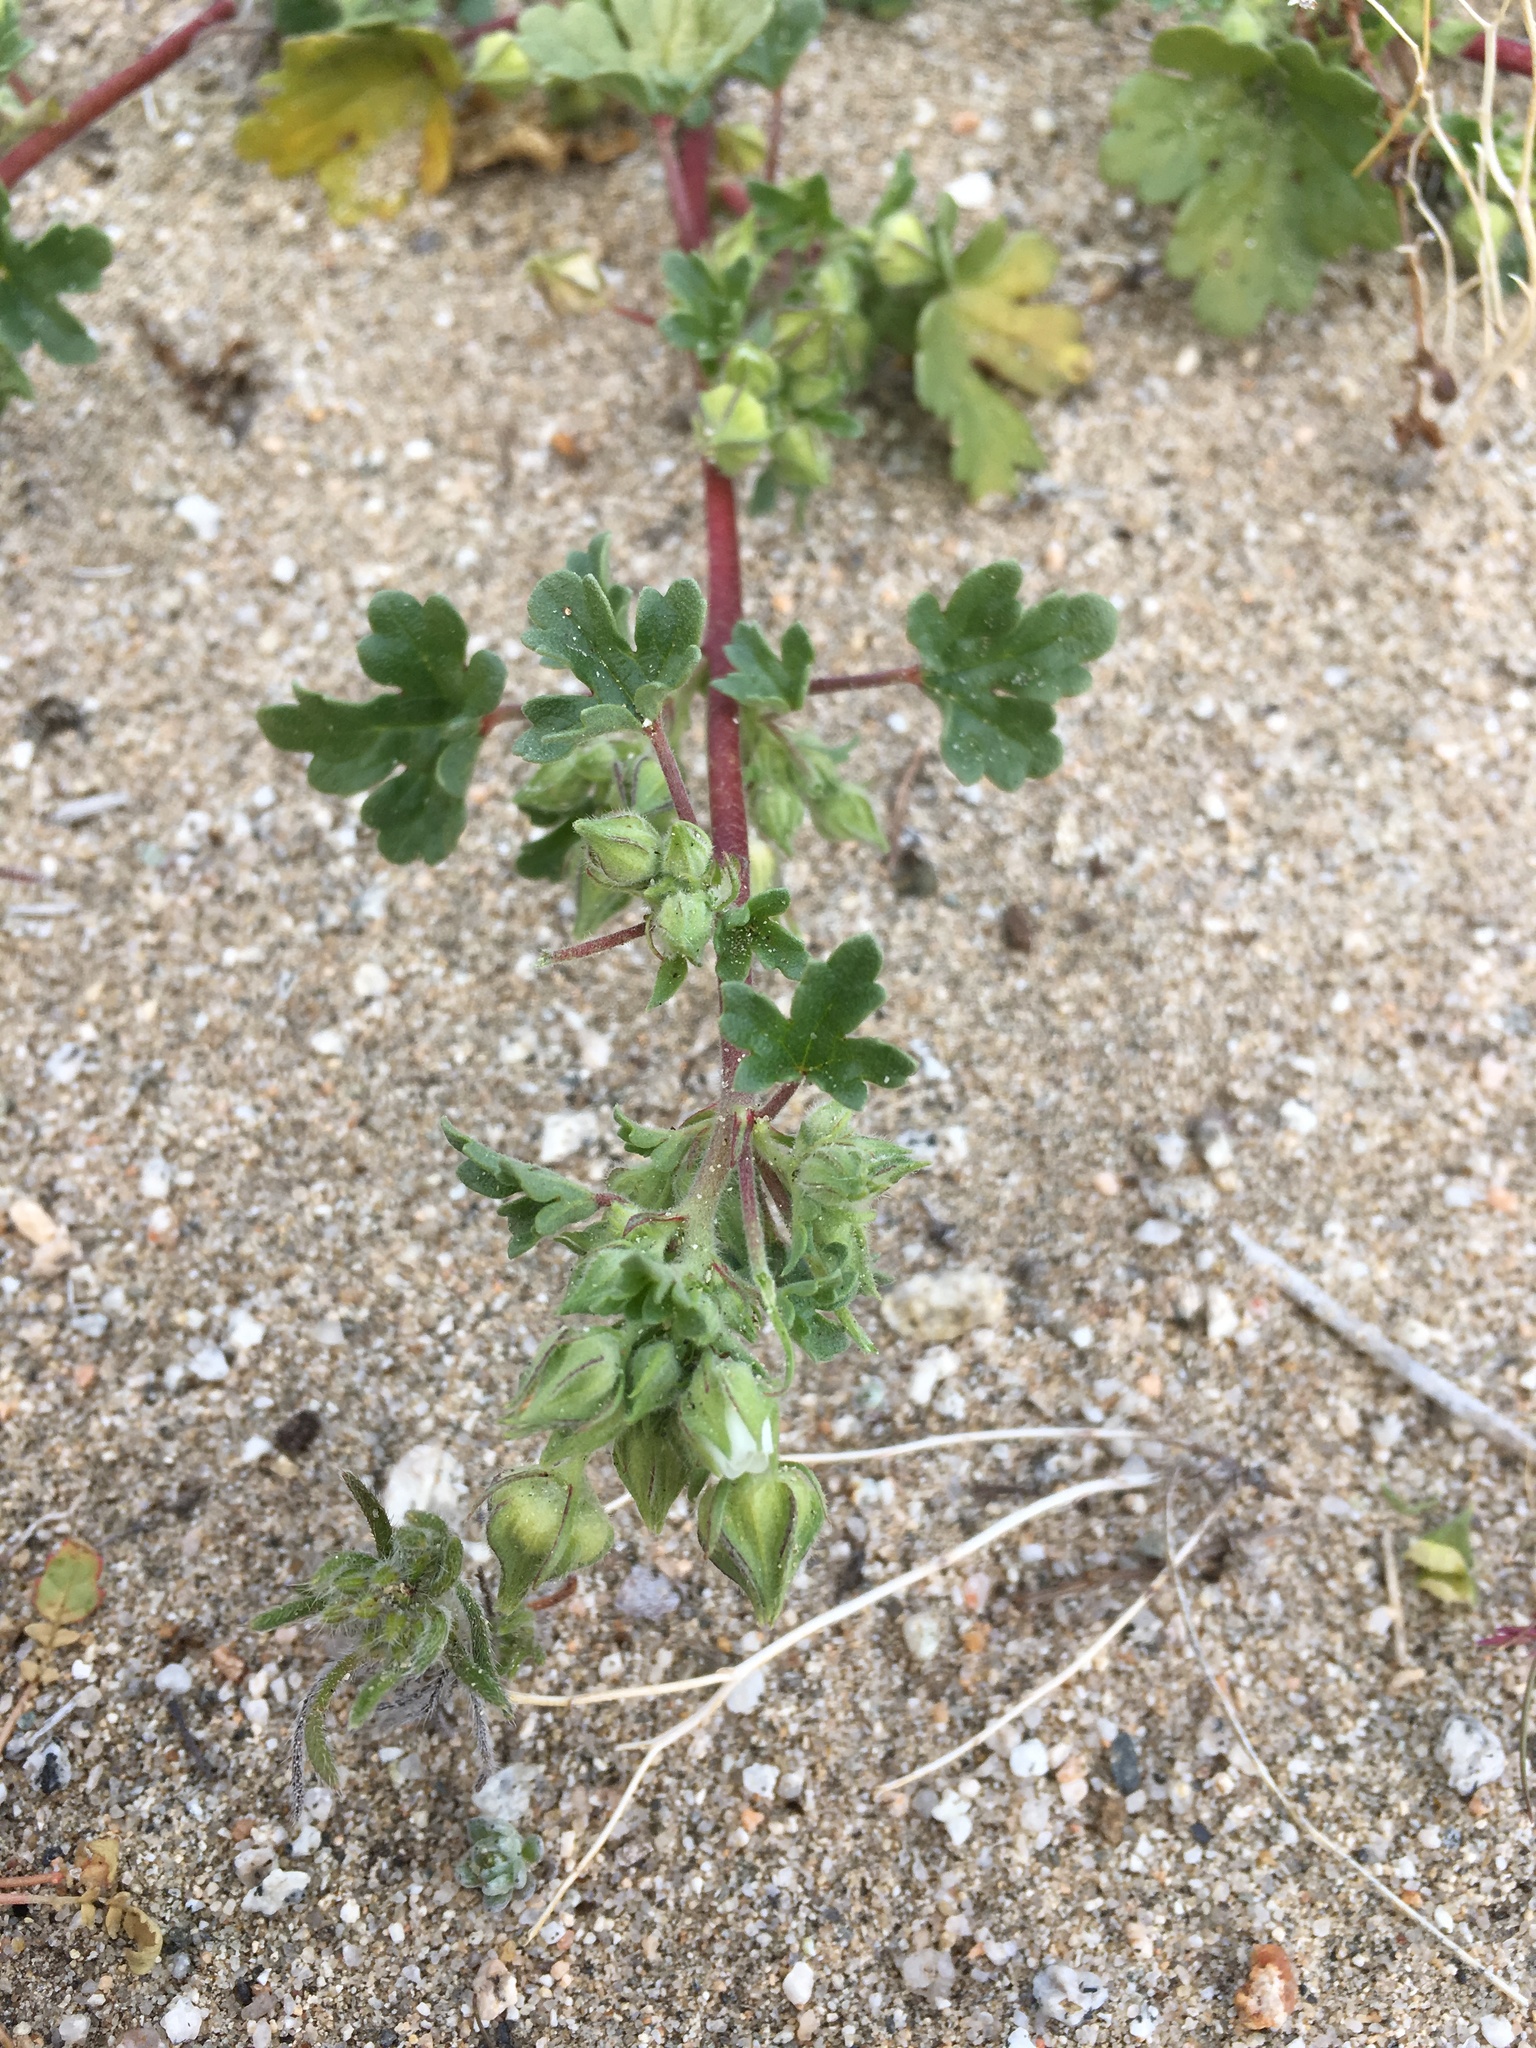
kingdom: Plantae
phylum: Tracheophyta
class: Magnoliopsida
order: Malvales
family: Malvaceae
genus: Eremalche
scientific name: Eremalche exilis
